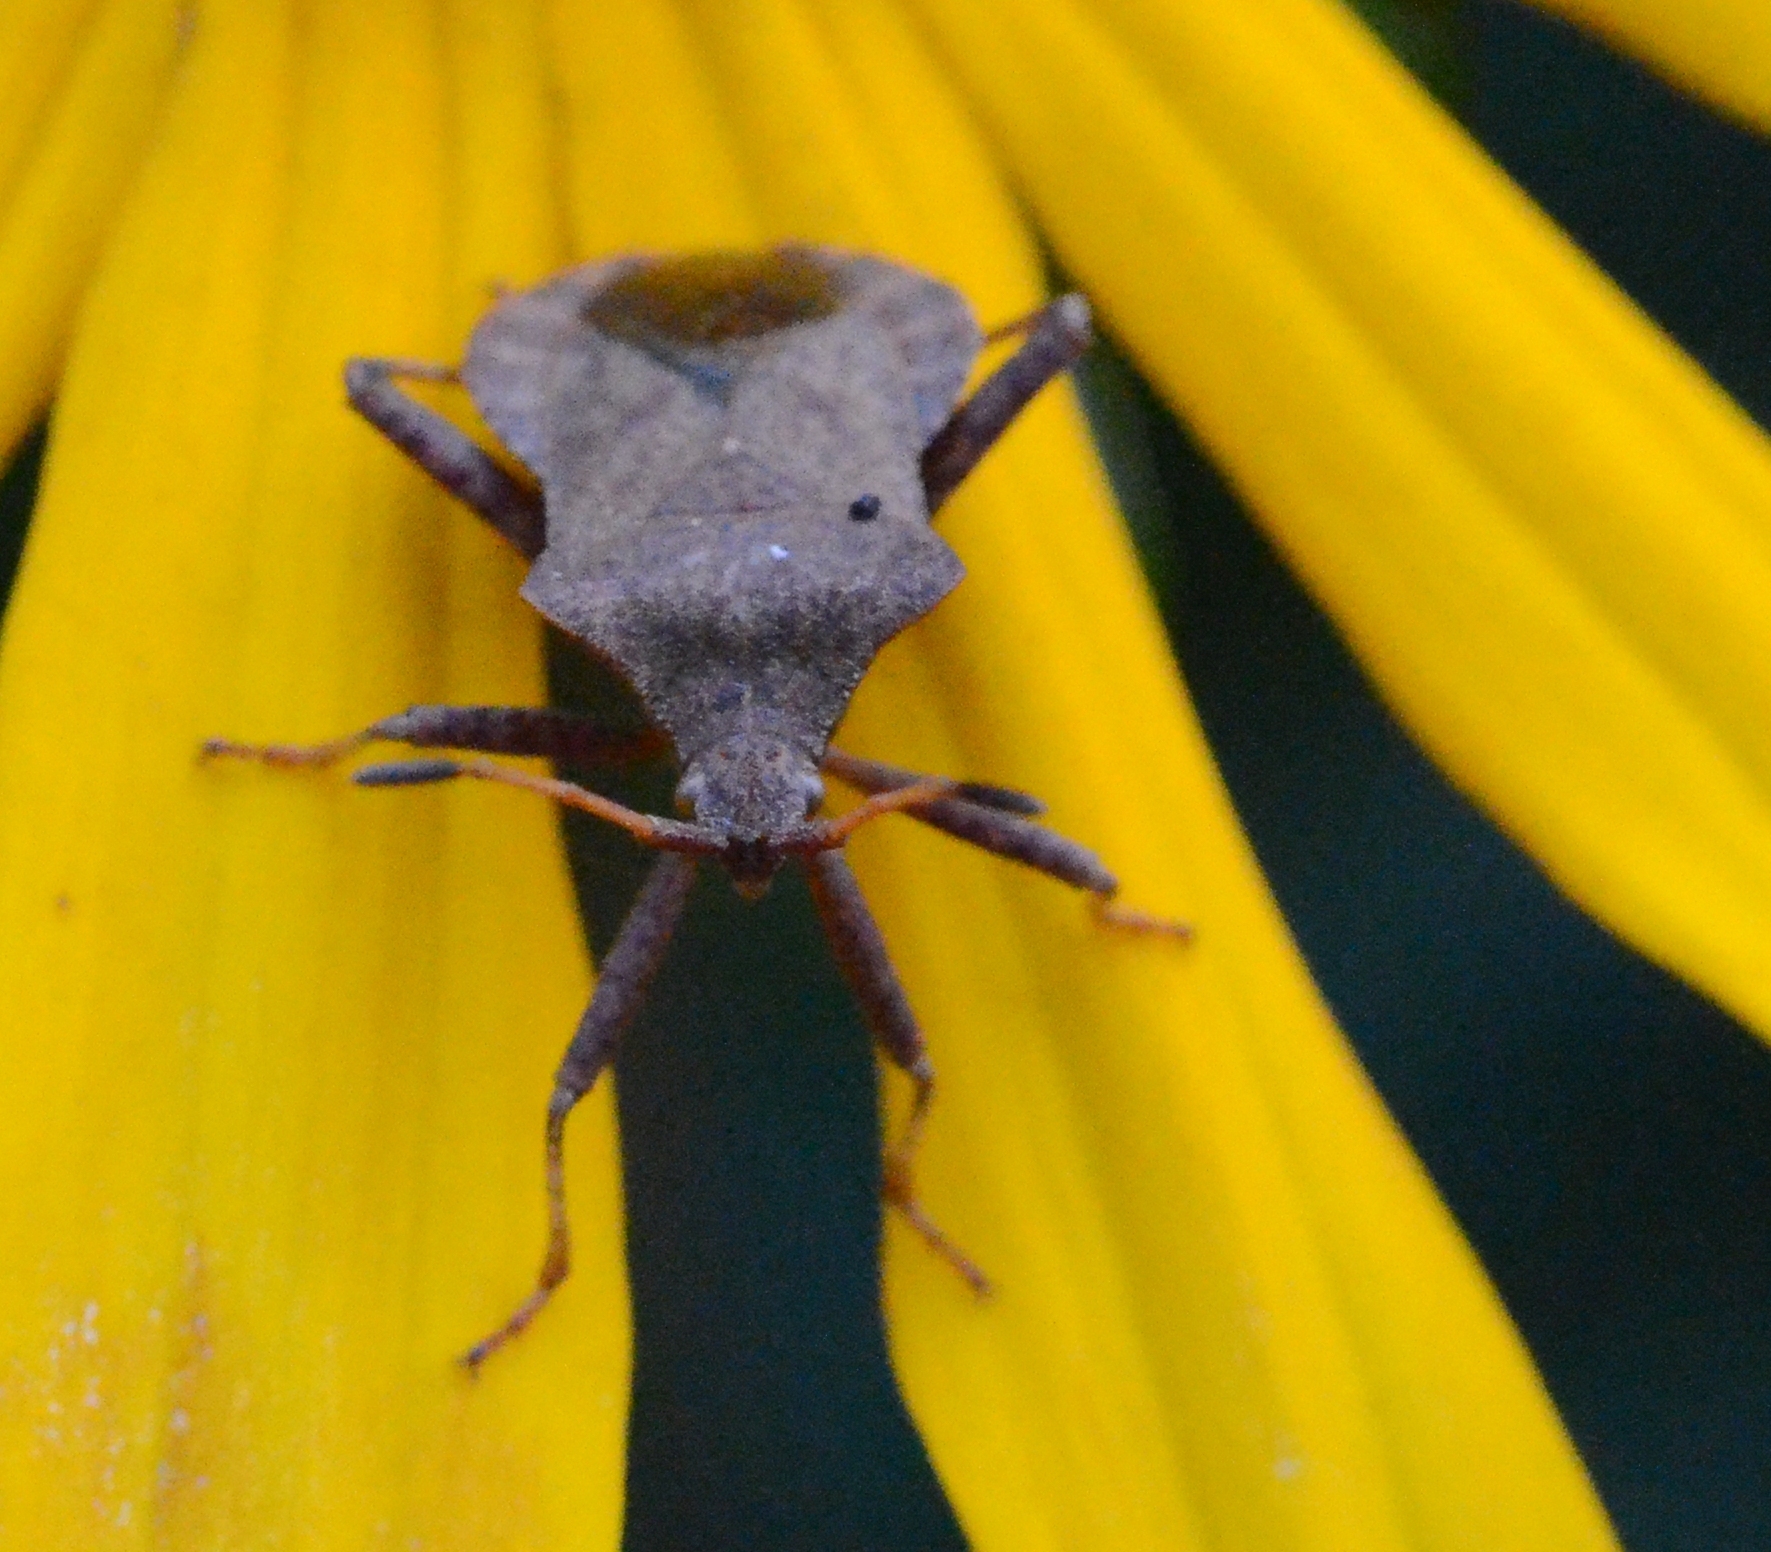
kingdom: Animalia
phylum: Arthropoda
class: Insecta
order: Hemiptera
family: Coreidae
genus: Coreus
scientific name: Coreus marginatus
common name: Dock bug
